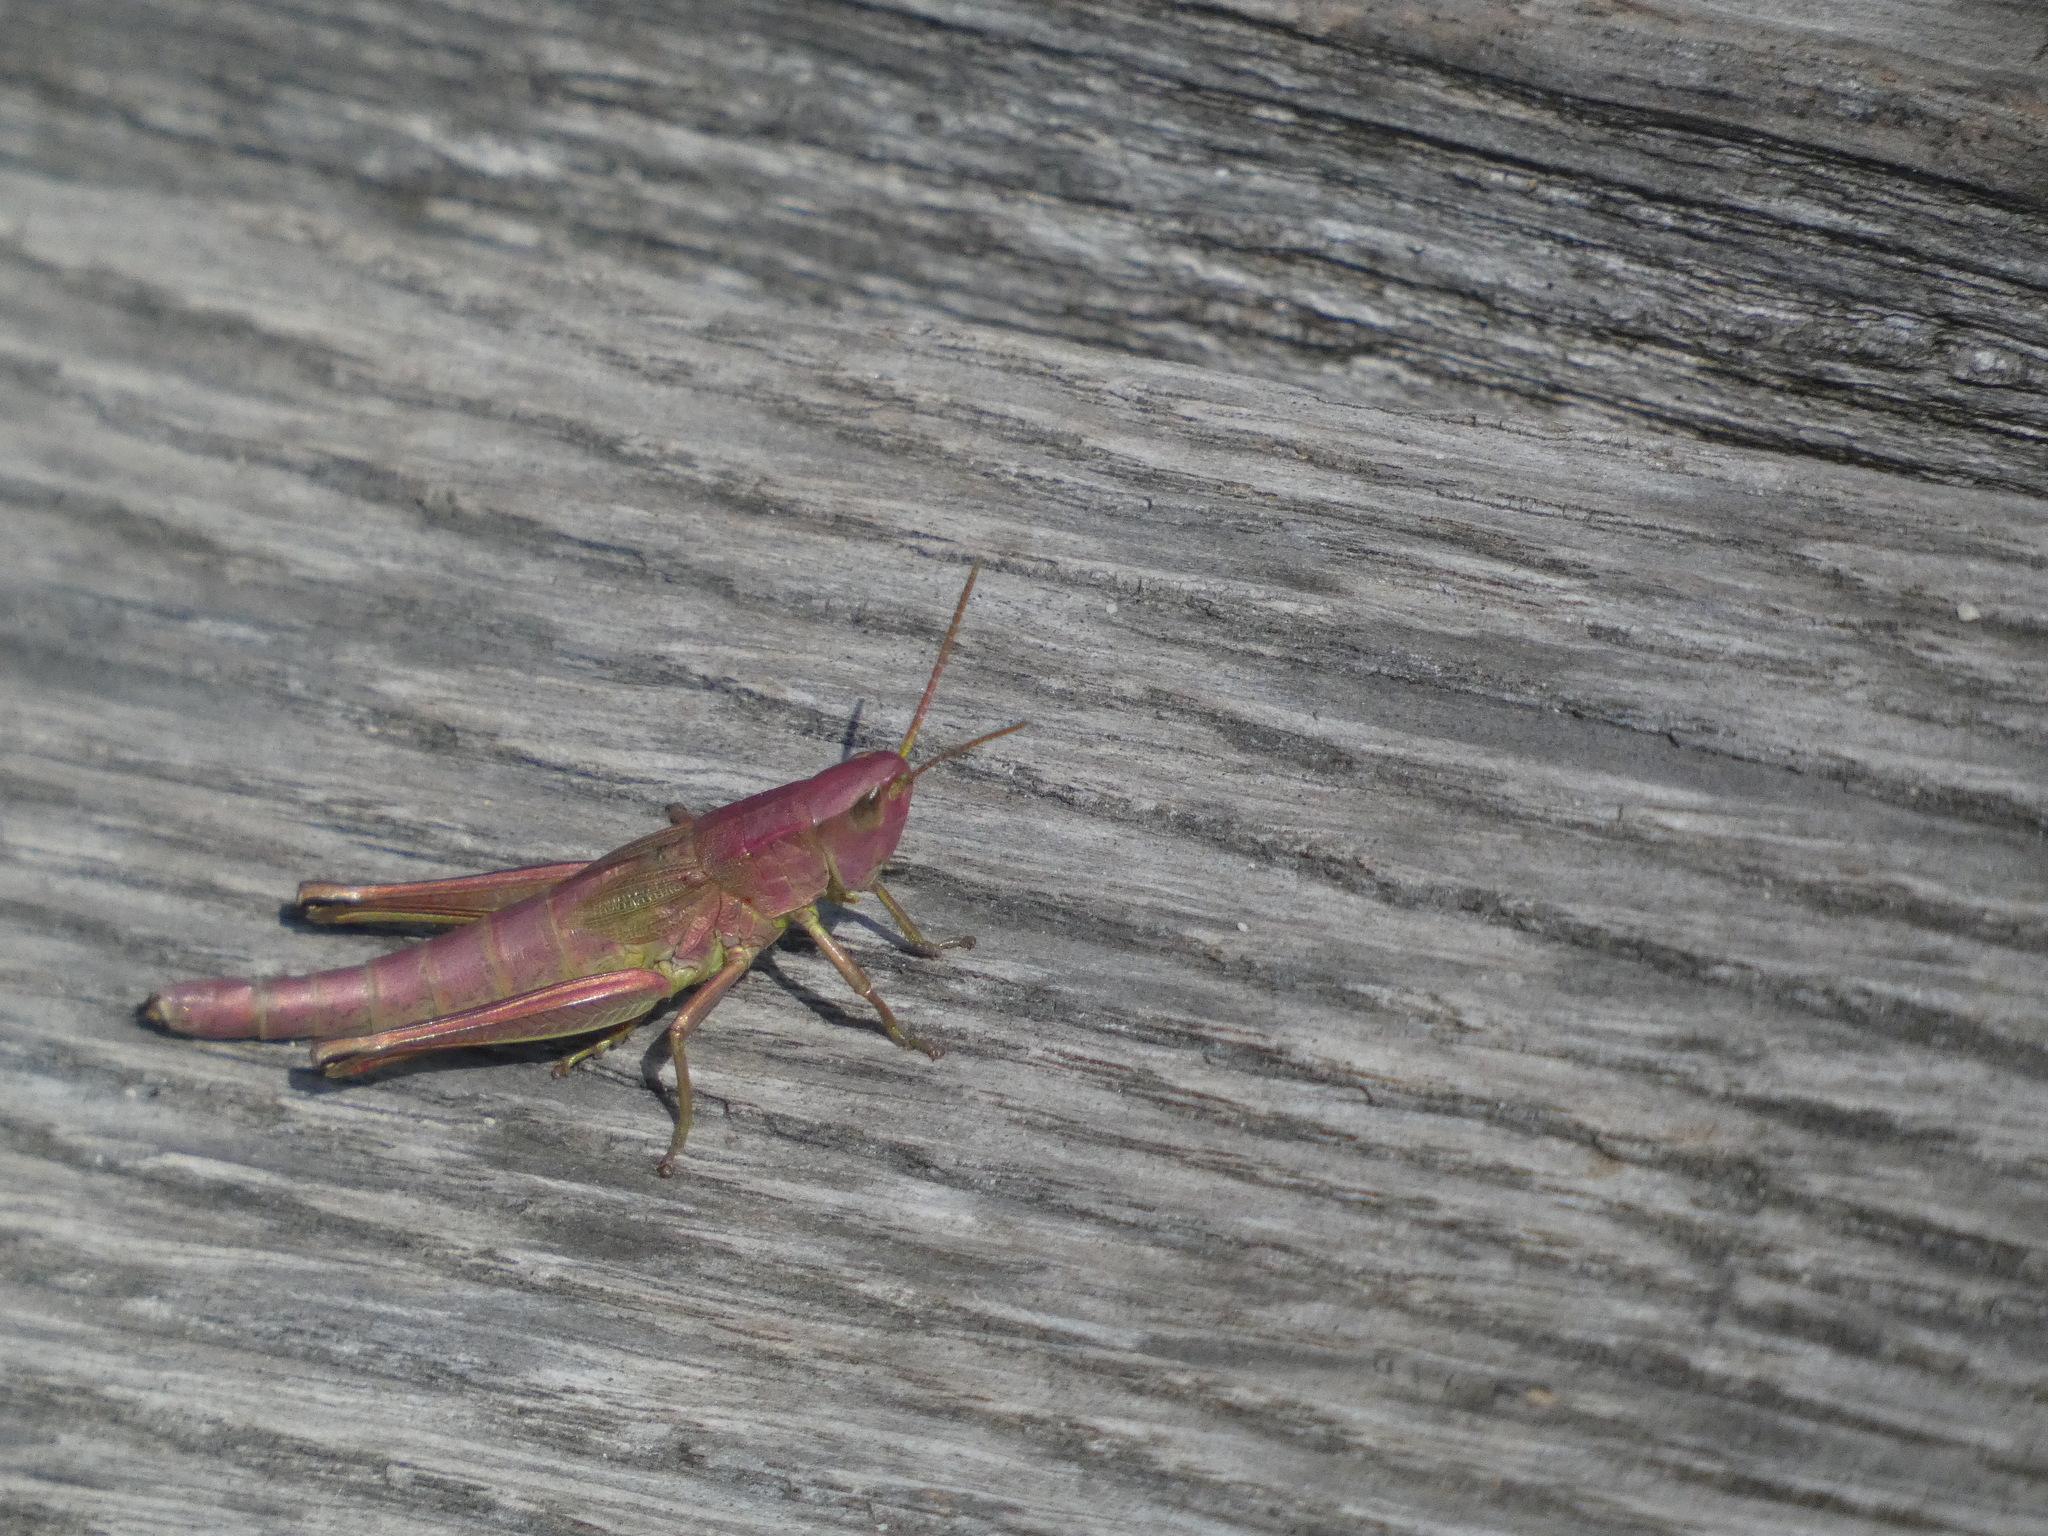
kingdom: Animalia
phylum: Arthropoda
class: Insecta
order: Orthoptera
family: Acrididae
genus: Chrysochraon
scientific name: Chrysochraon dispar
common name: Large gold grasshopper
